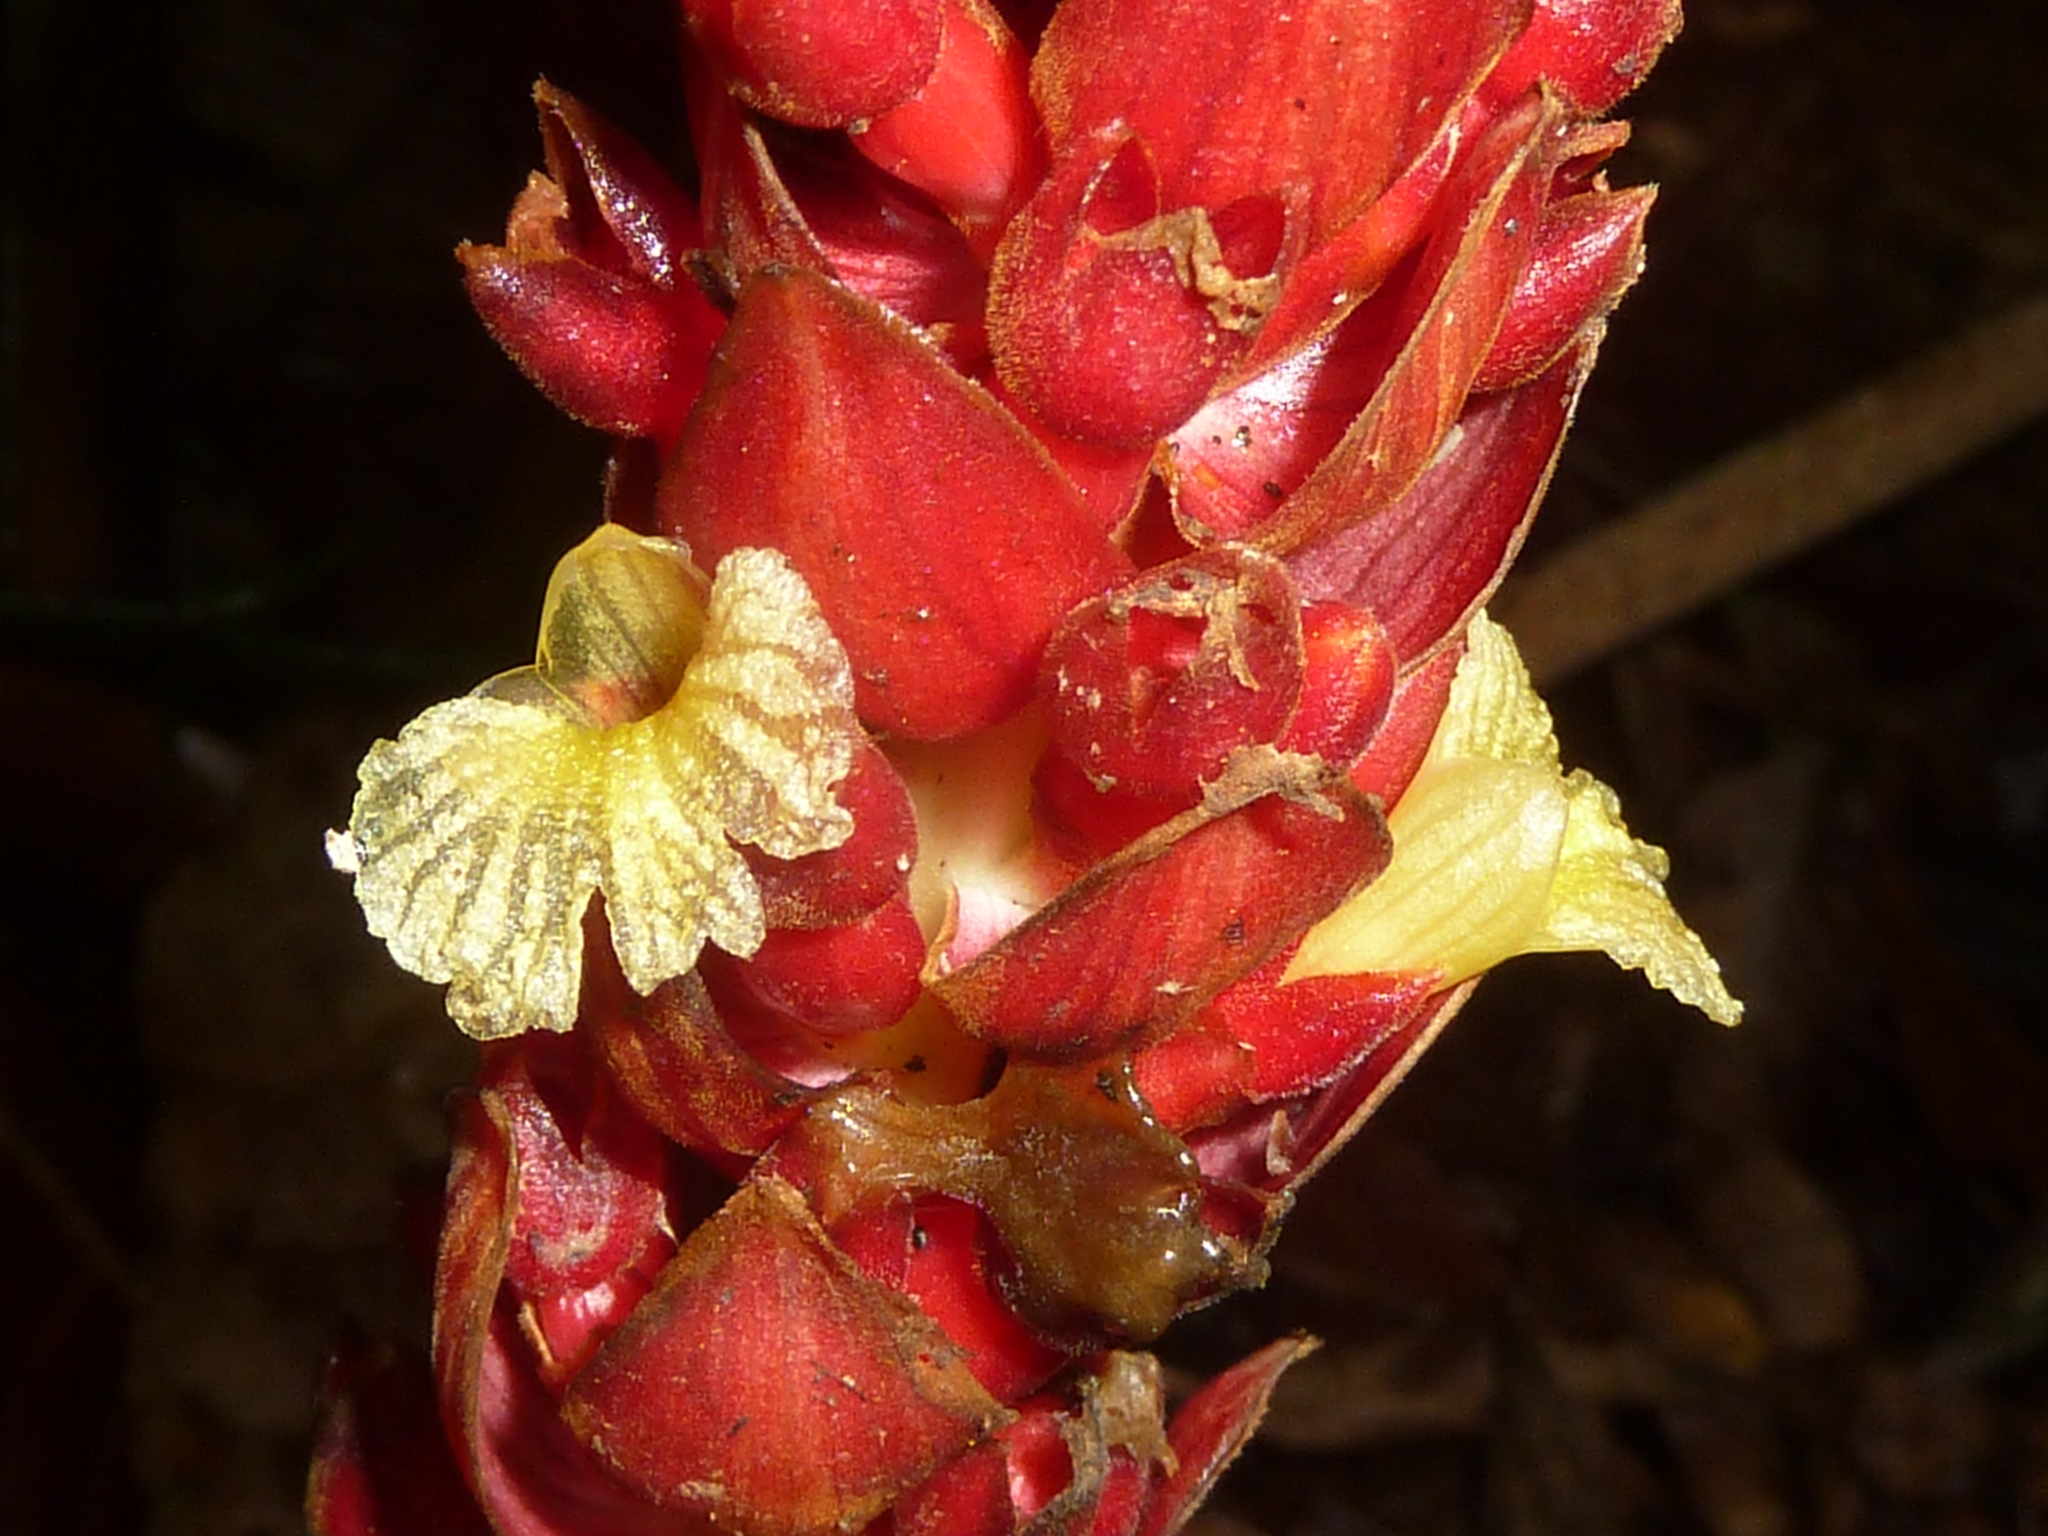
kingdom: Plantae
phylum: Tracheophyta
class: Liliopsida
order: Zingiberales
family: Zingiberaceae
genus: Renealmia
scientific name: Renealmia pluriplicata
